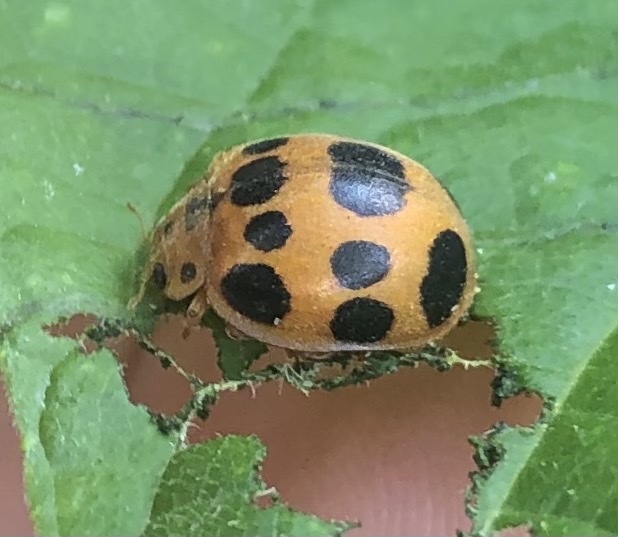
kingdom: Animalia
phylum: Arthropoda
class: Insecta
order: Coleoptera
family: Coccinellidae
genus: Epilachna
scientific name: Epilachna borealis
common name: Squash beetle
